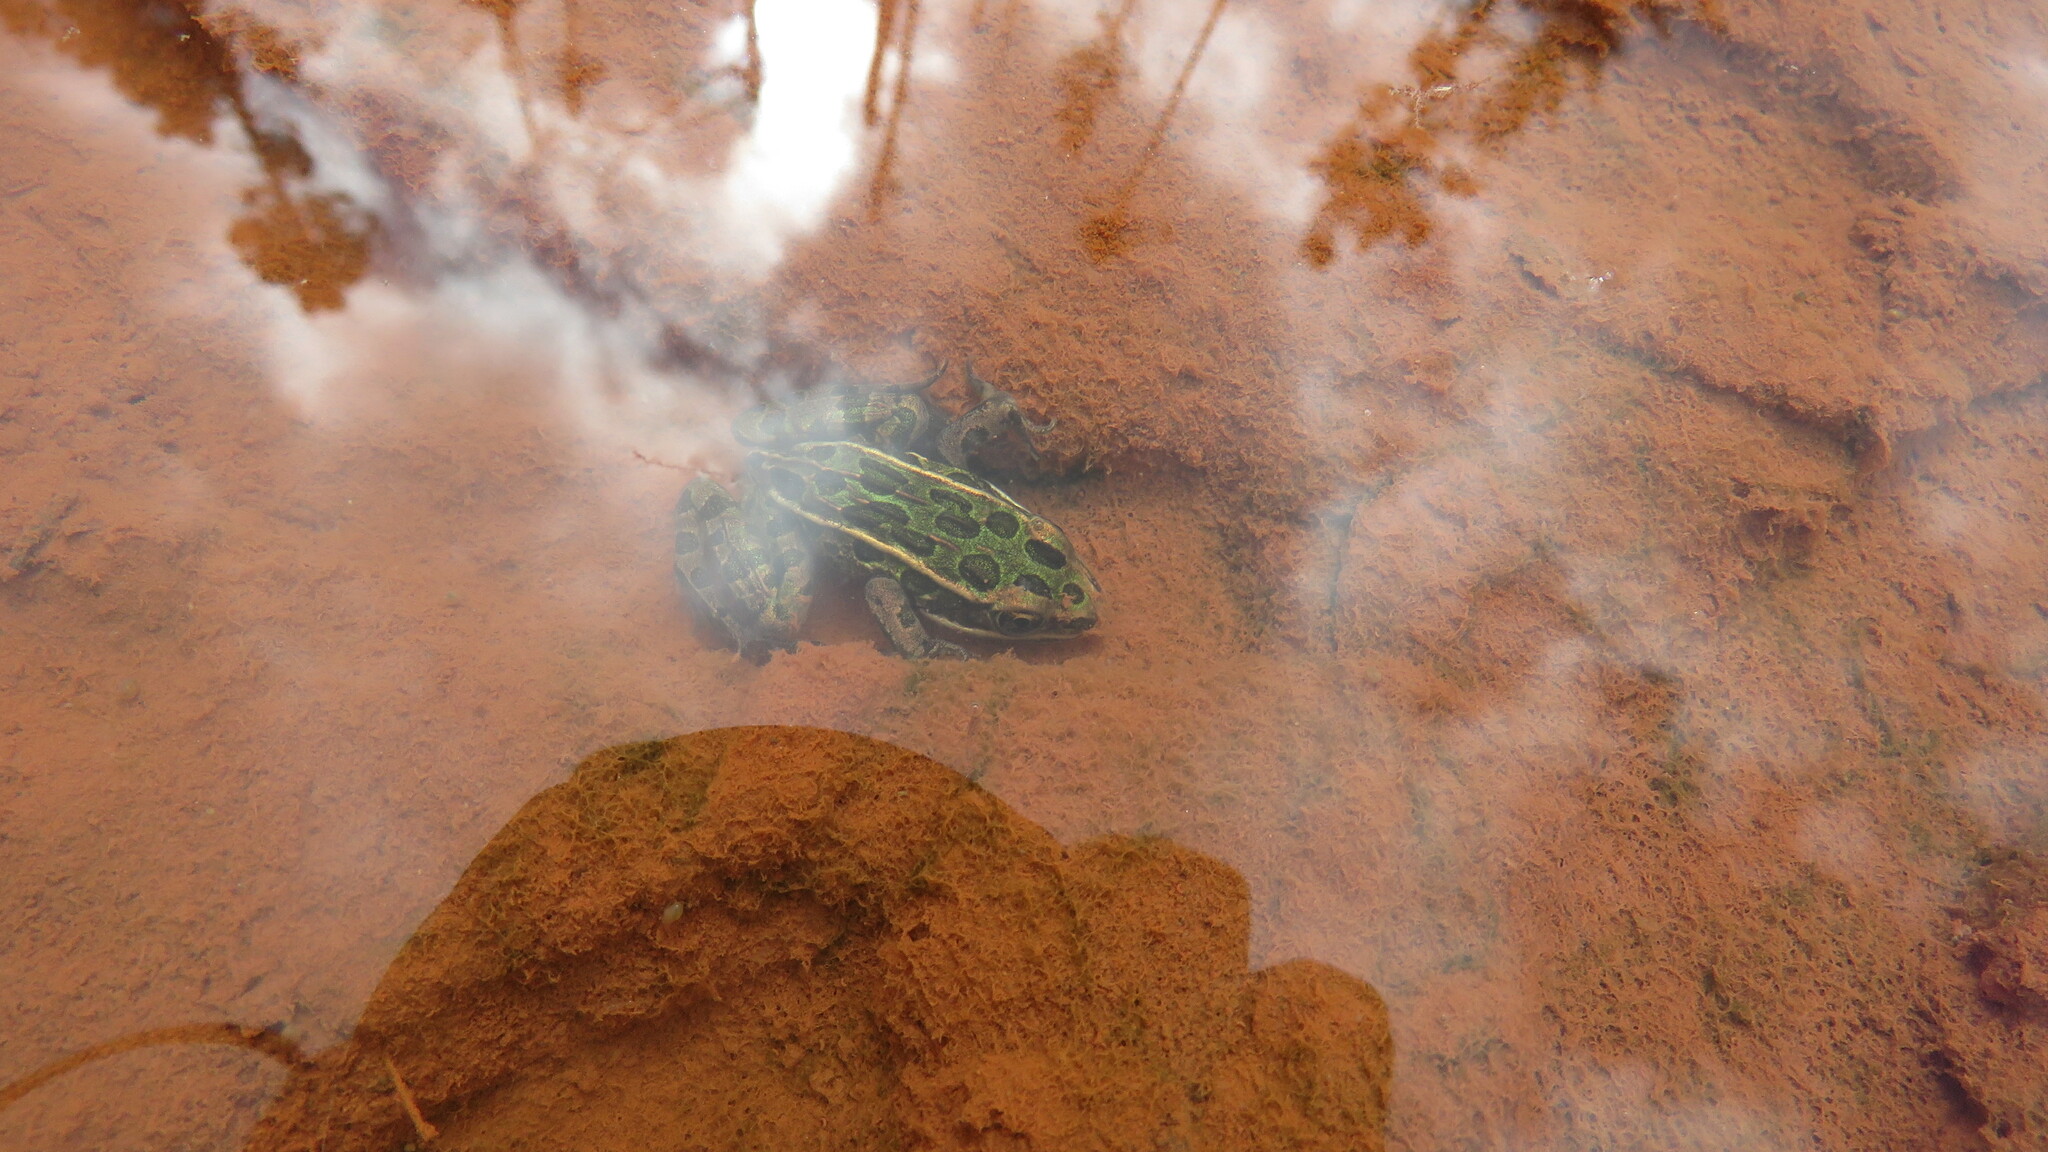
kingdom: Animalia
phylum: Chordata
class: Amphibia
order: Anura
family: Ranidae
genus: Lithobates
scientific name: Lithobates pipiens
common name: Northern leopard frog
